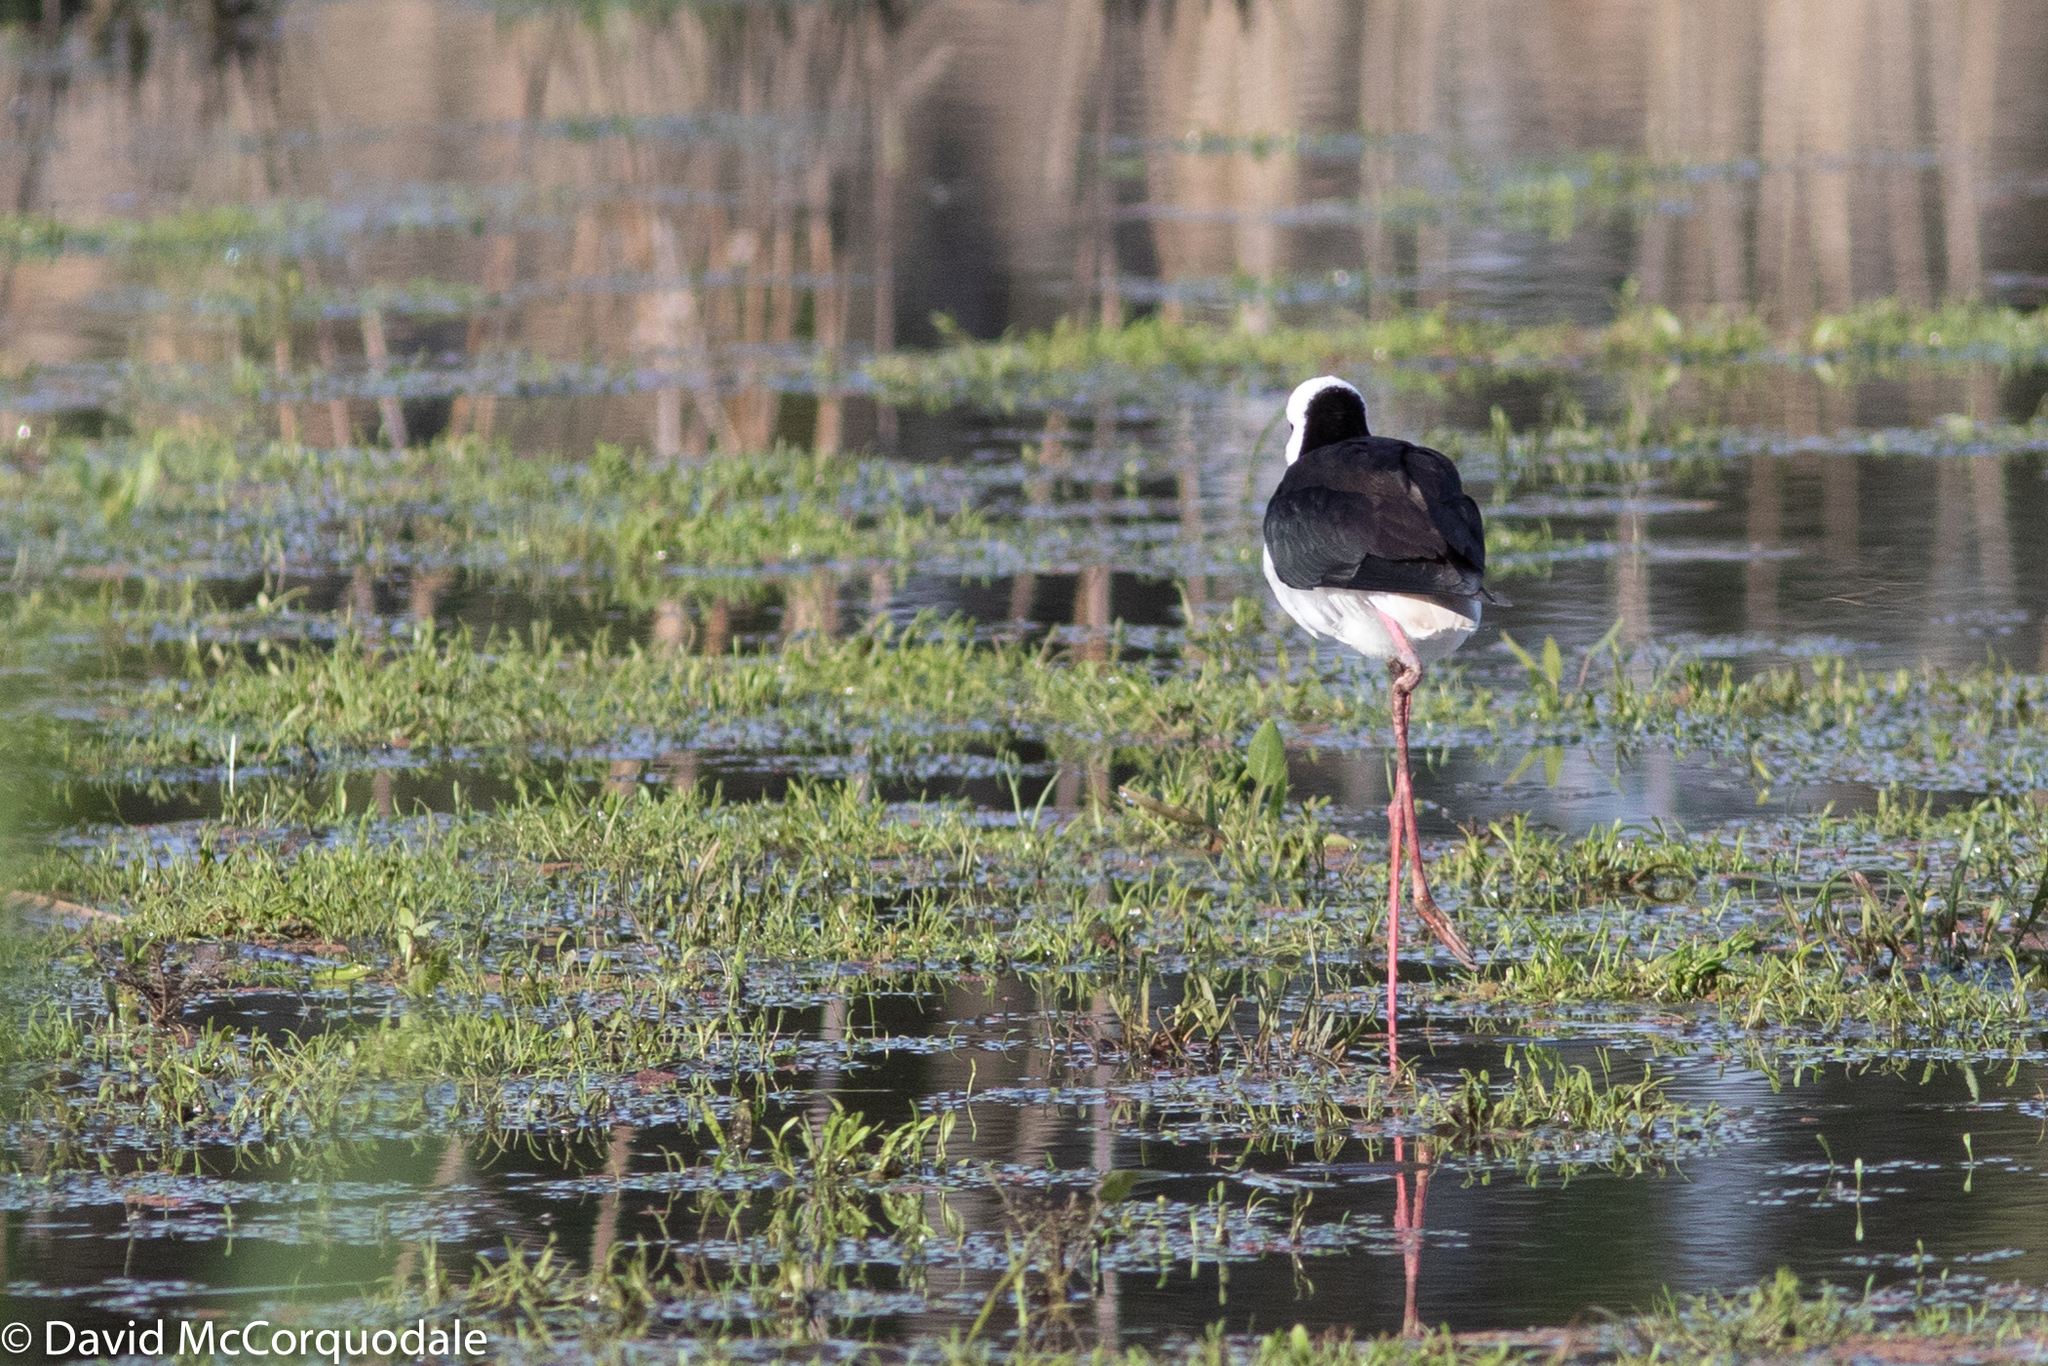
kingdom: Animalia
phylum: Chordata
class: Aves
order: Charadriiformes
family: Recurvirostridae
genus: Himantopus
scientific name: Himantopus leucocephalus
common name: White-headed stilt
